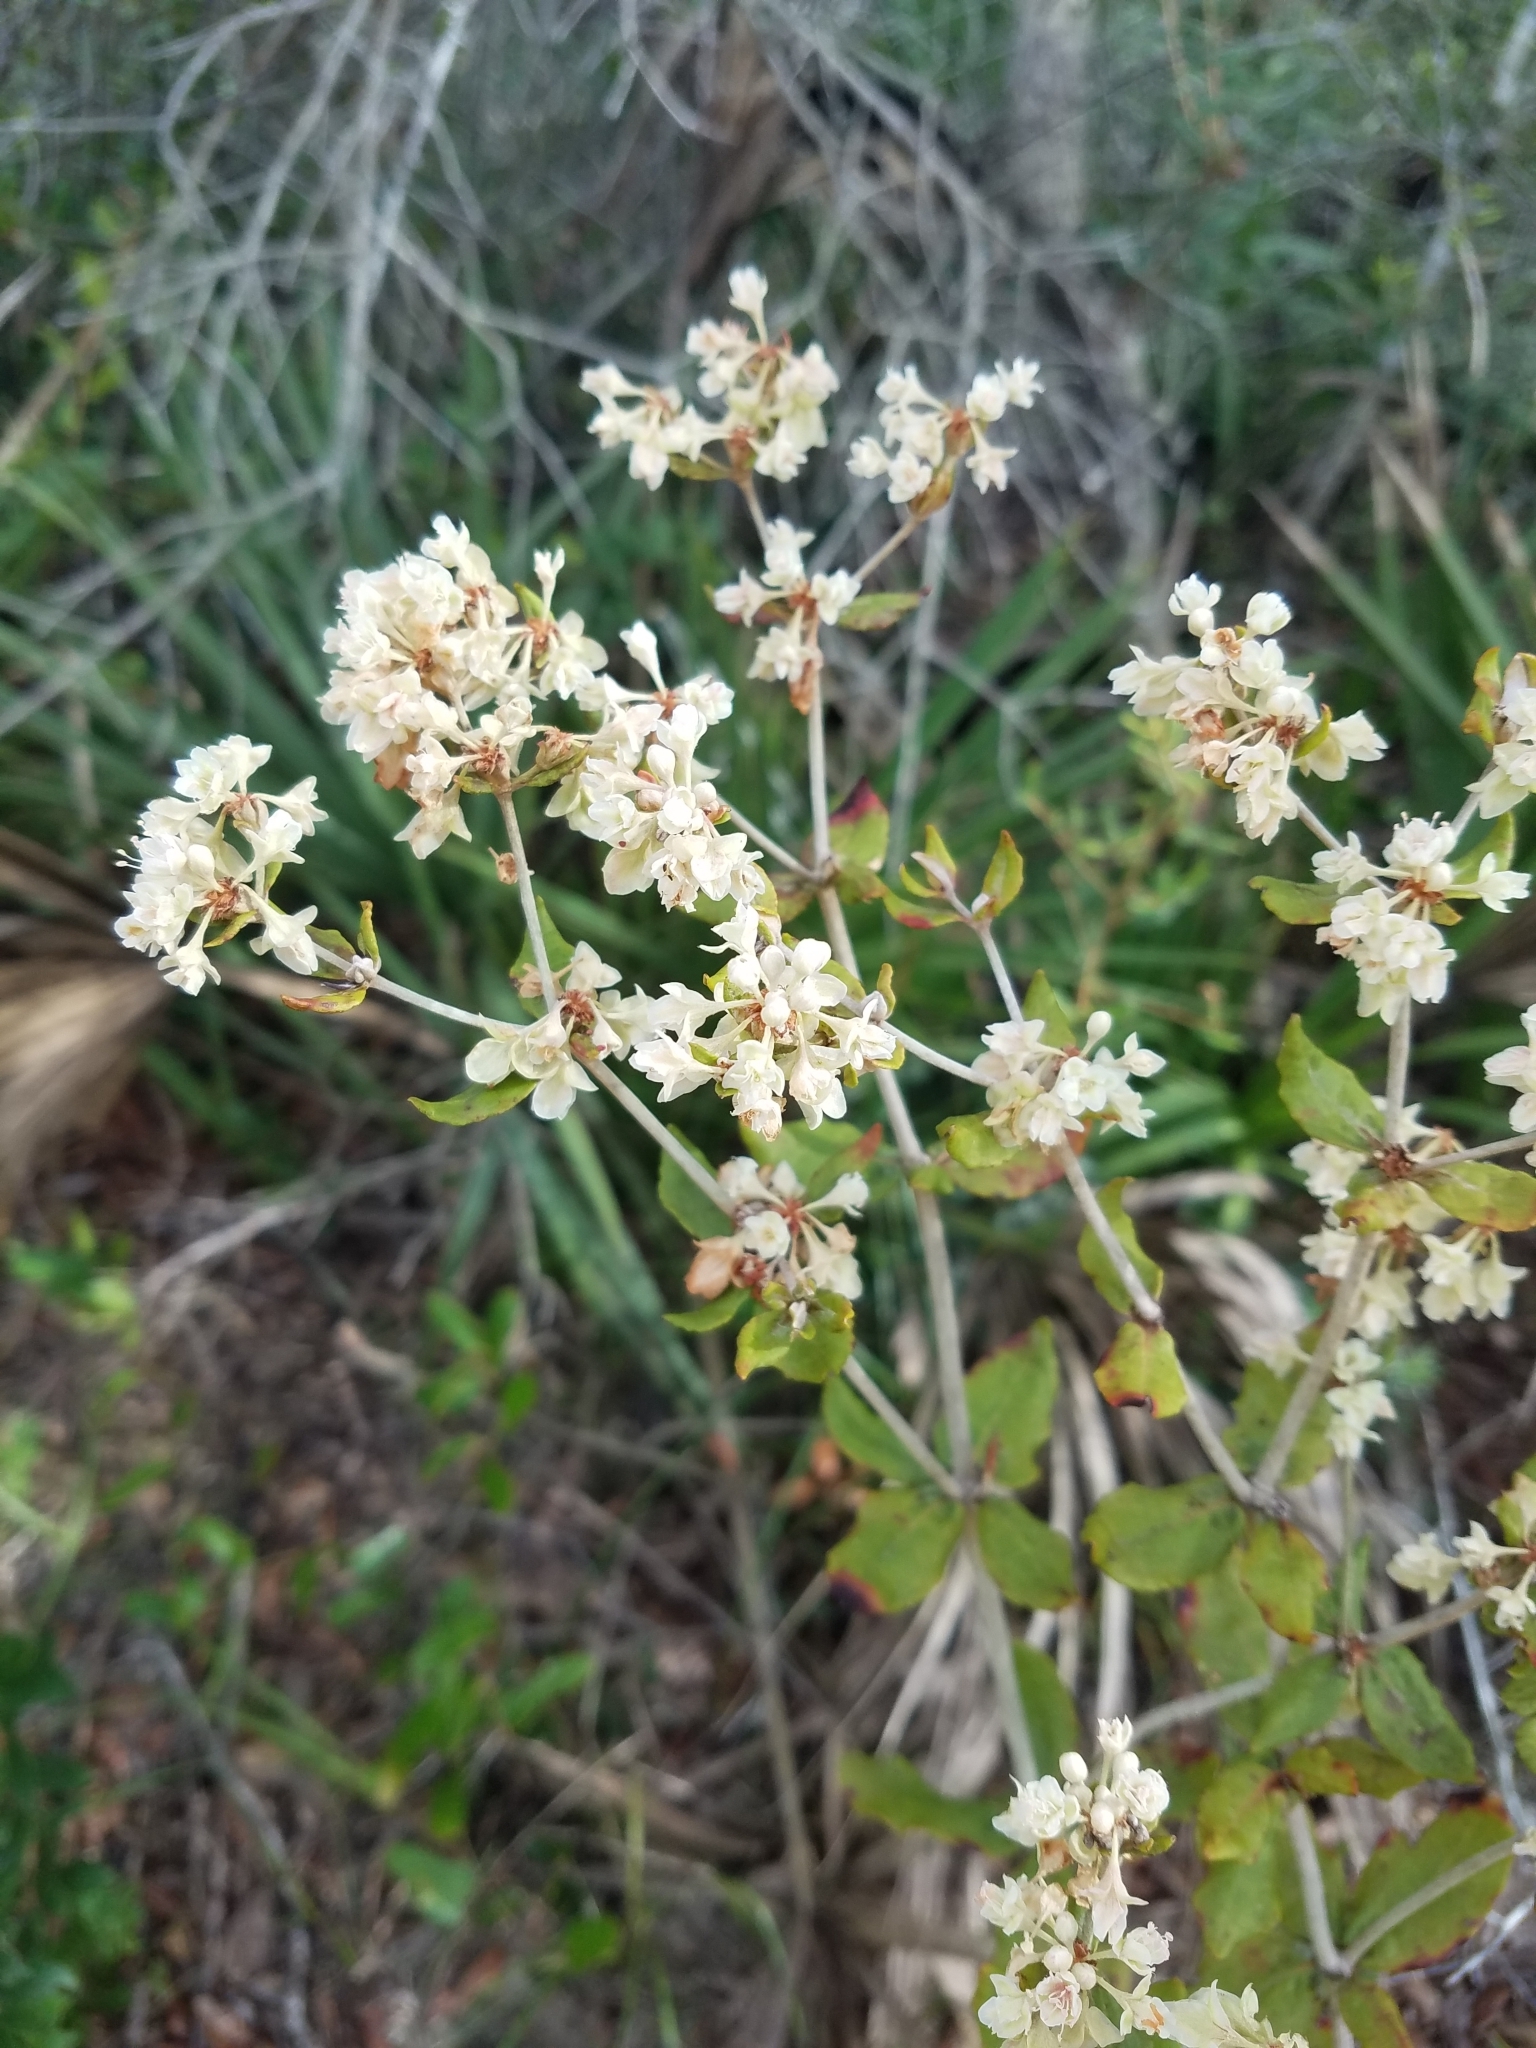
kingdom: Plantae
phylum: Tracheophyta
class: Magnoliopsida
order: Caryophyllales
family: Polygonaceae
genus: Eriogonum
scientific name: Eriogonum tomentosum
